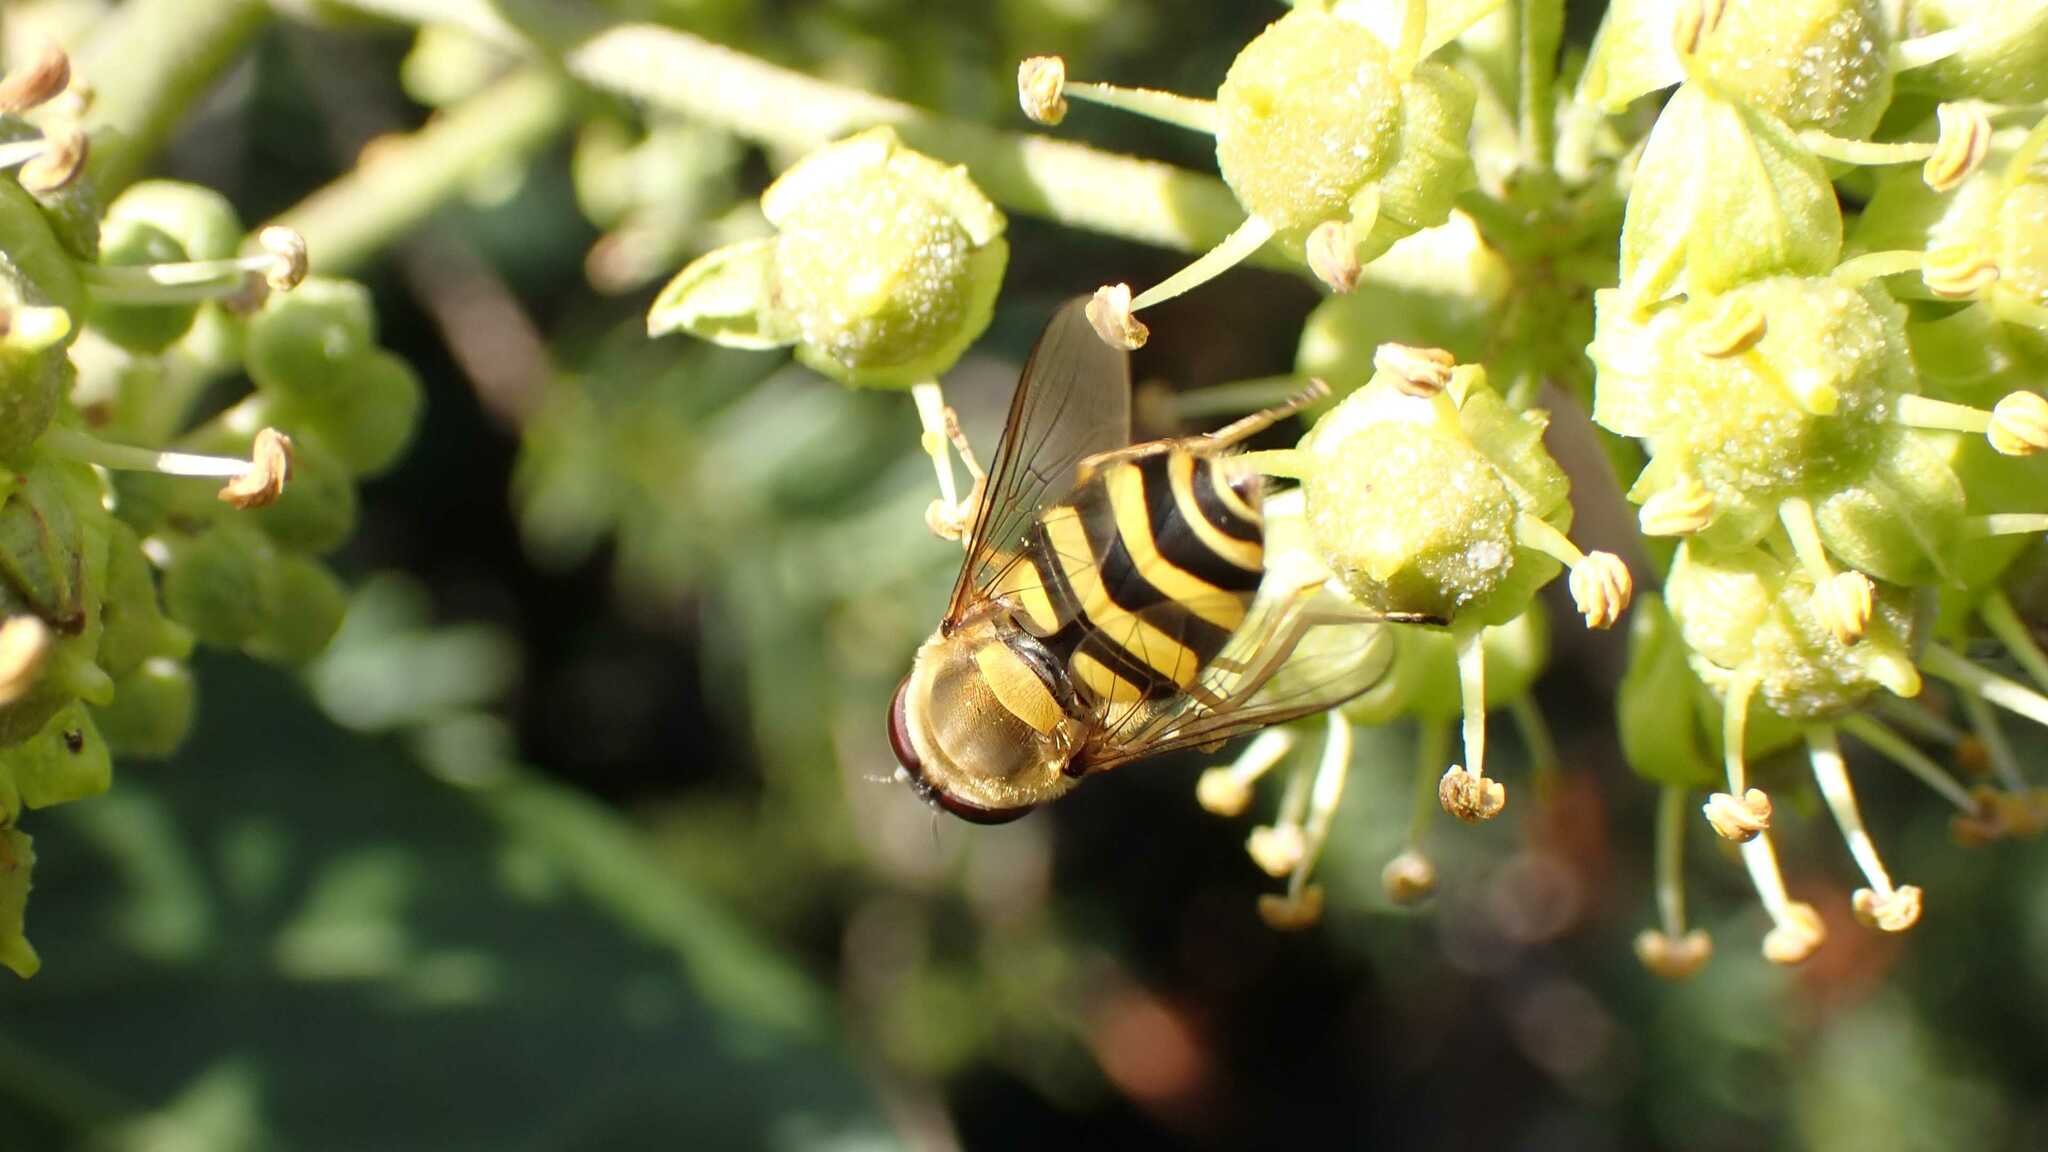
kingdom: Animalia
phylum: Arthropoda
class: Insecta
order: Diptera
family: Syrphidae
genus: Syrphus
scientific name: Syrphus
